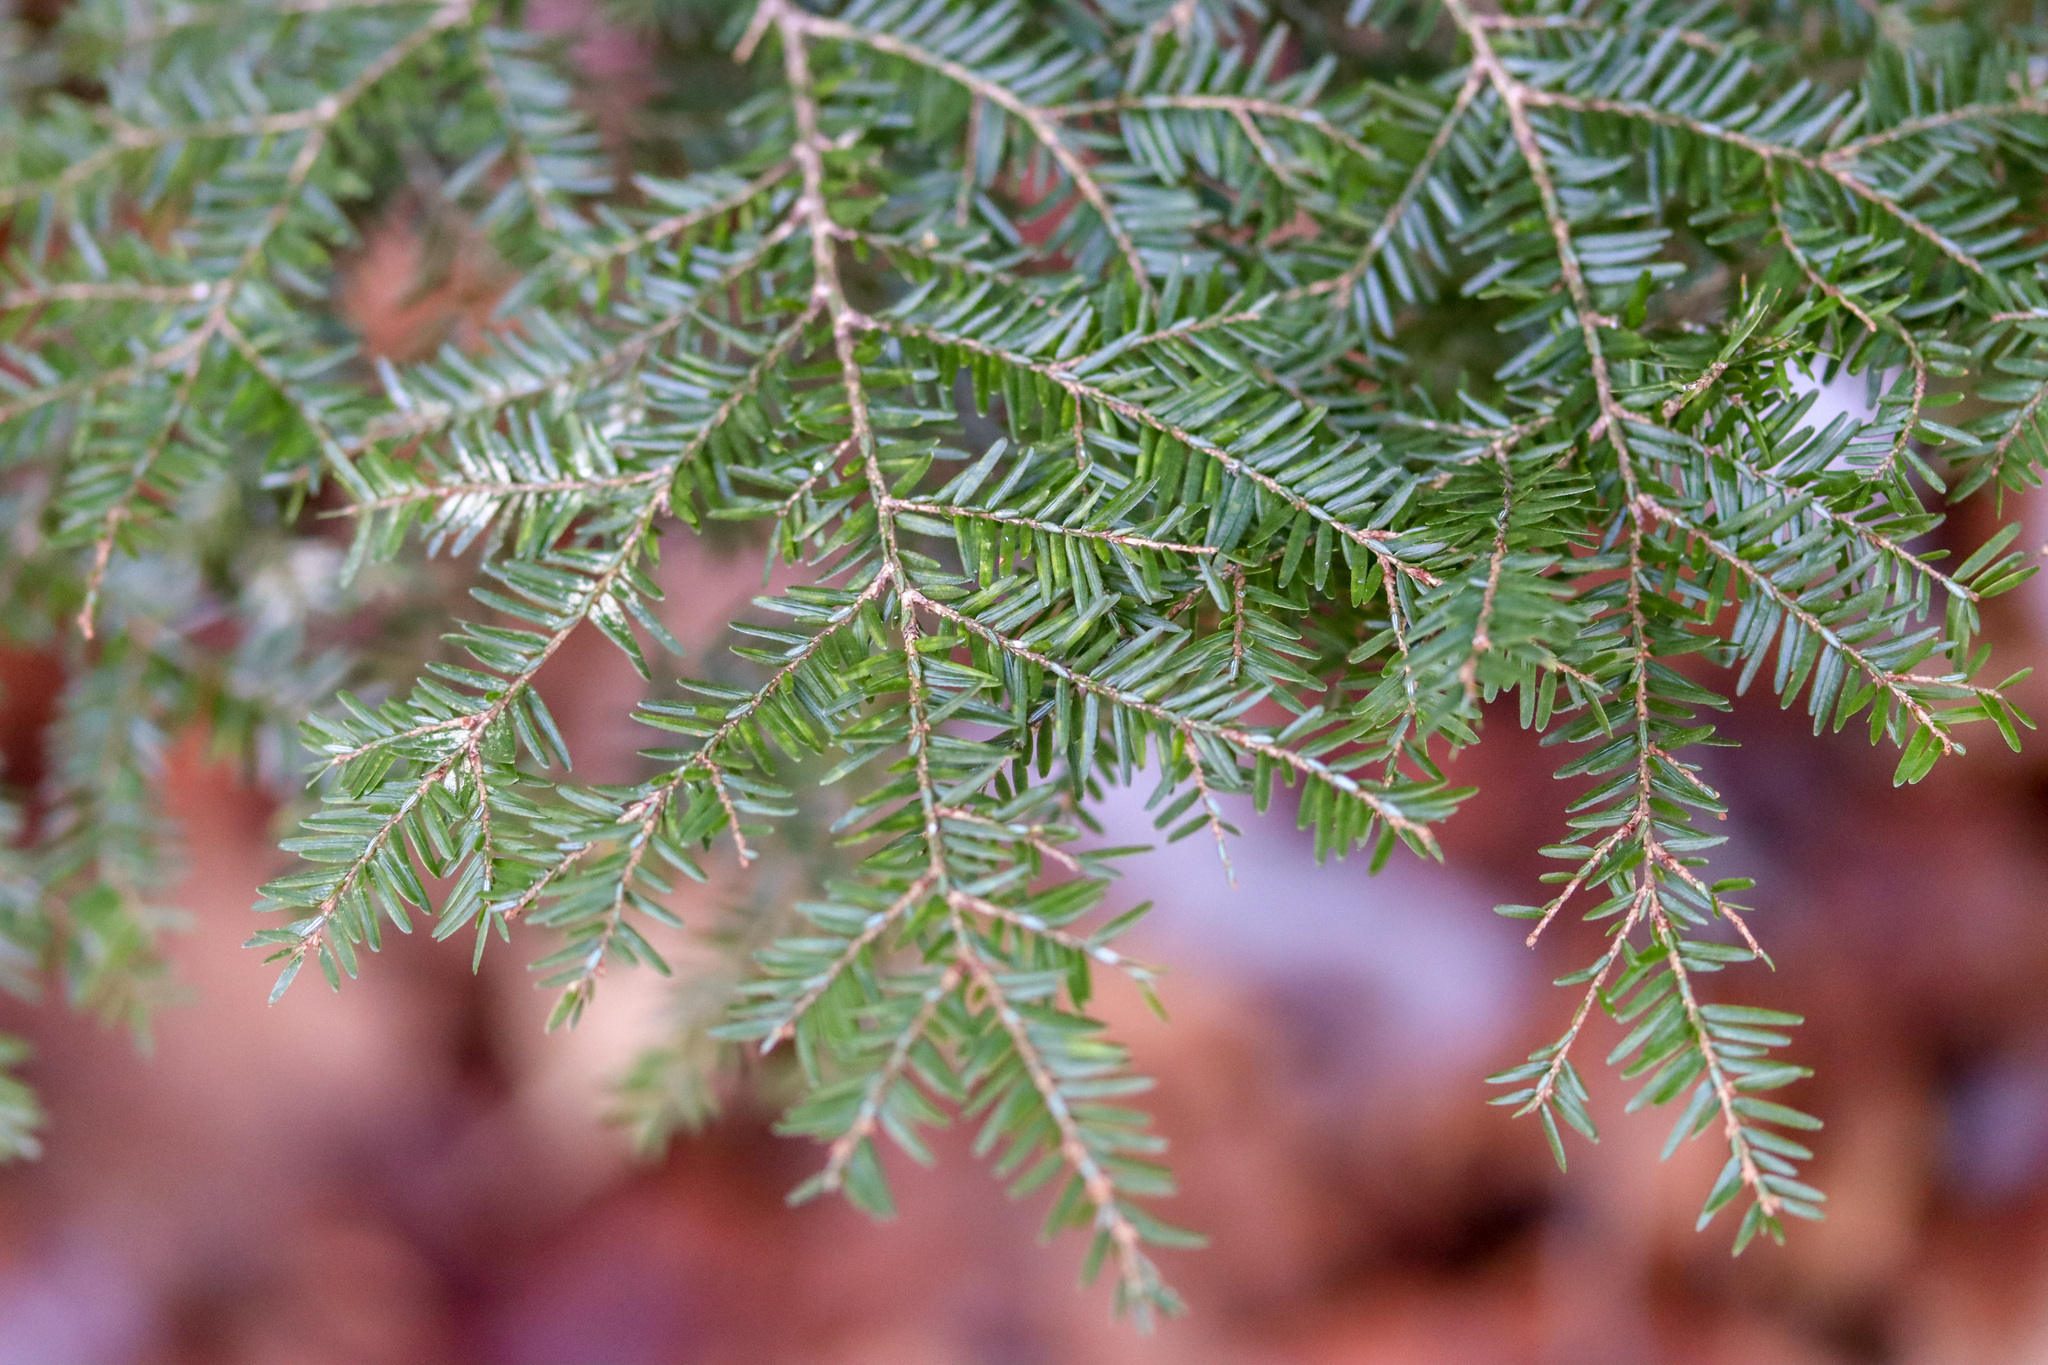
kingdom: Plantae
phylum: Tracheophyta
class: Pinopsida
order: Pinales
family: Pinaceae
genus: Tsuga
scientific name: Tsuga canadensis
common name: Eastern hemlock
